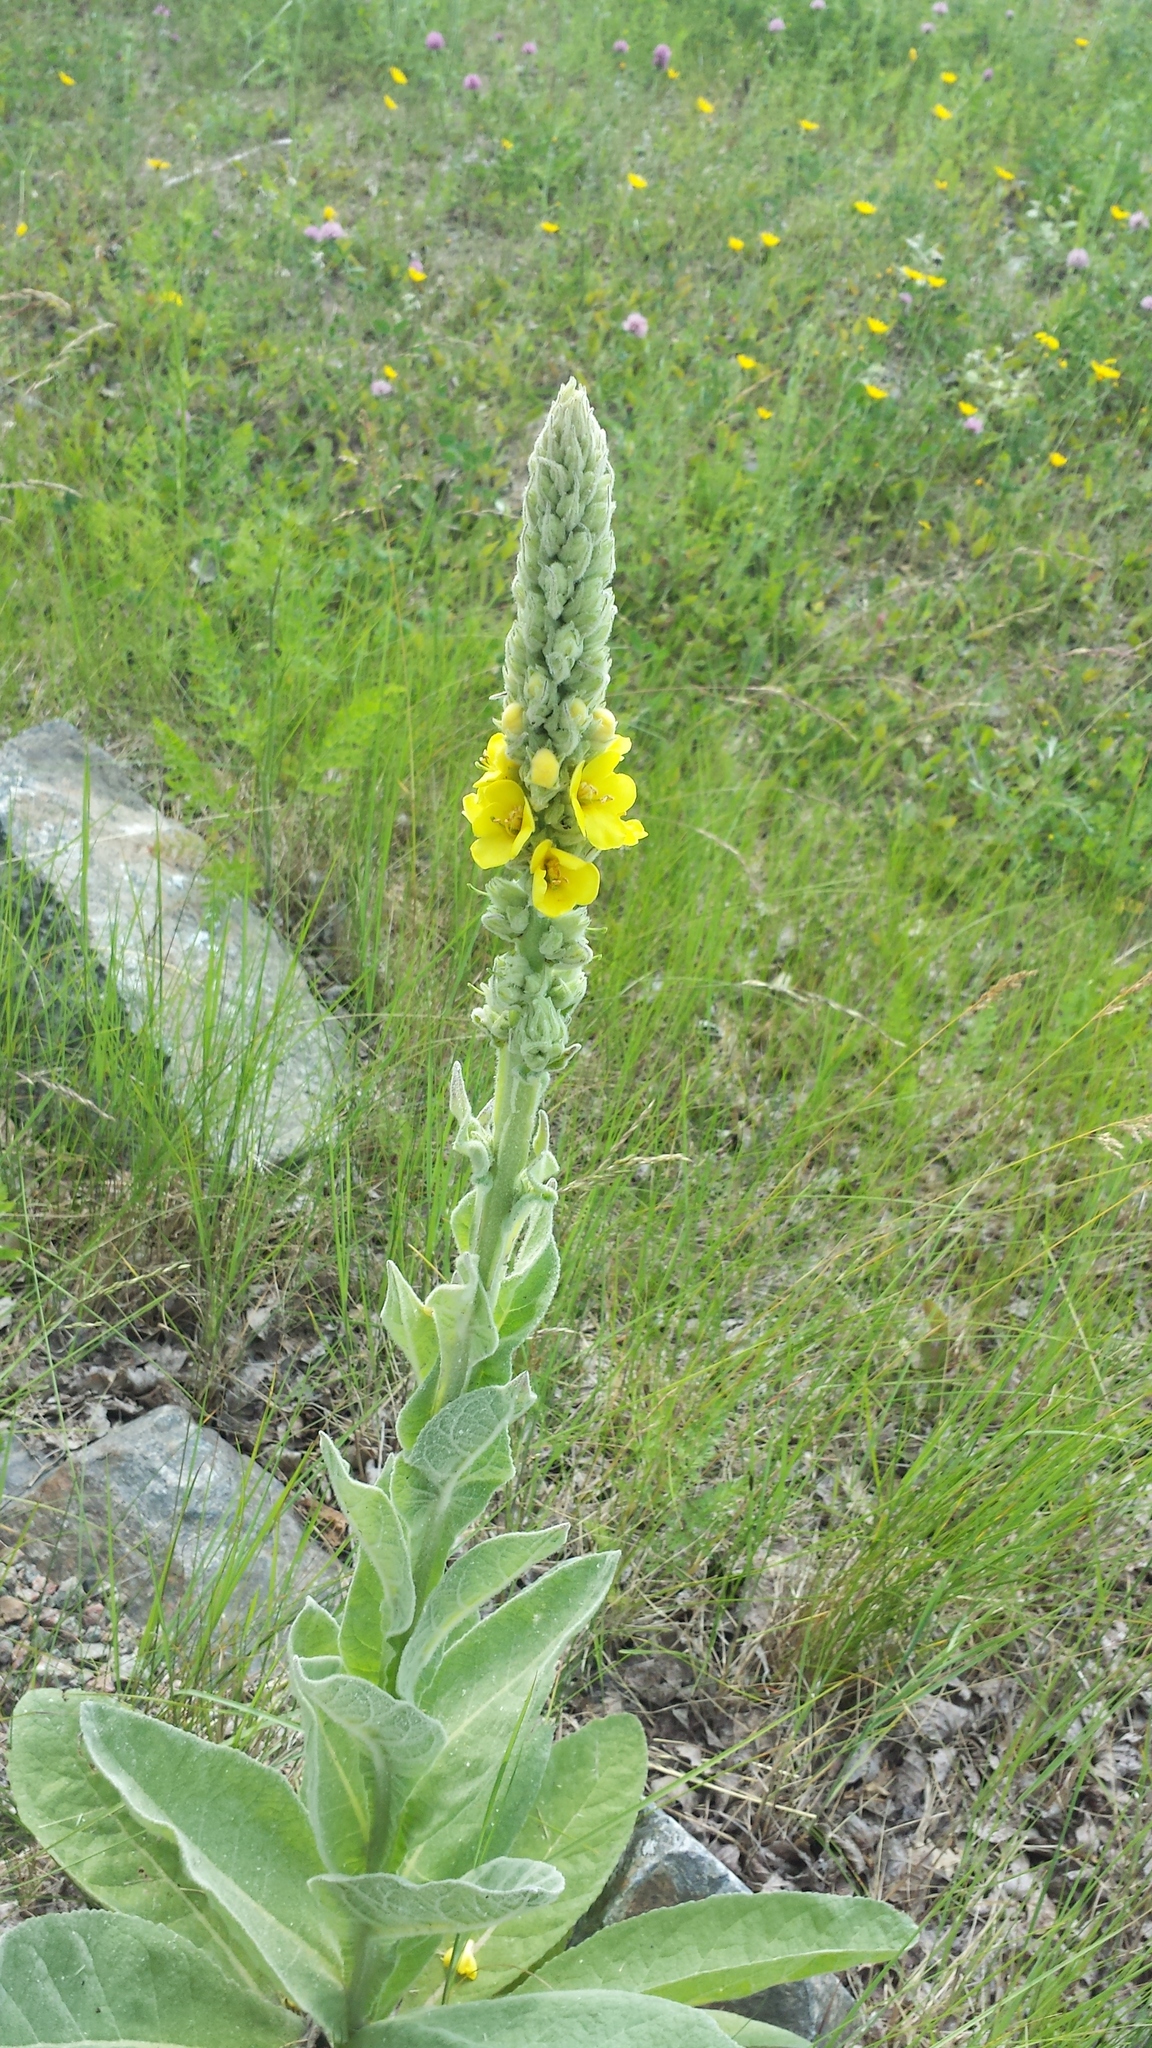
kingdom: Plantae
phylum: Tracheophyta
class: Magnoliopsida
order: Lamiales
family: Scrophulariaceae
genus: Verbascum
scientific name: Verbascum thapsus
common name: Common mullein
